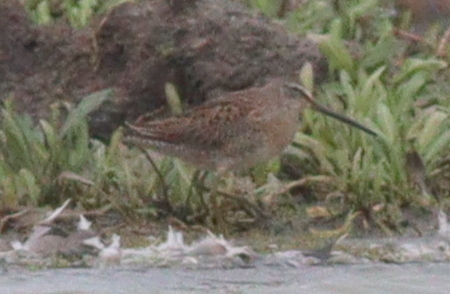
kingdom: Animalia
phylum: Chordata
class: Aves
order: Charadriiformes
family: Scolopacidae
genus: Limnodromus
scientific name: Limnodromus scolopaceus
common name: Long-billed dowitcher
